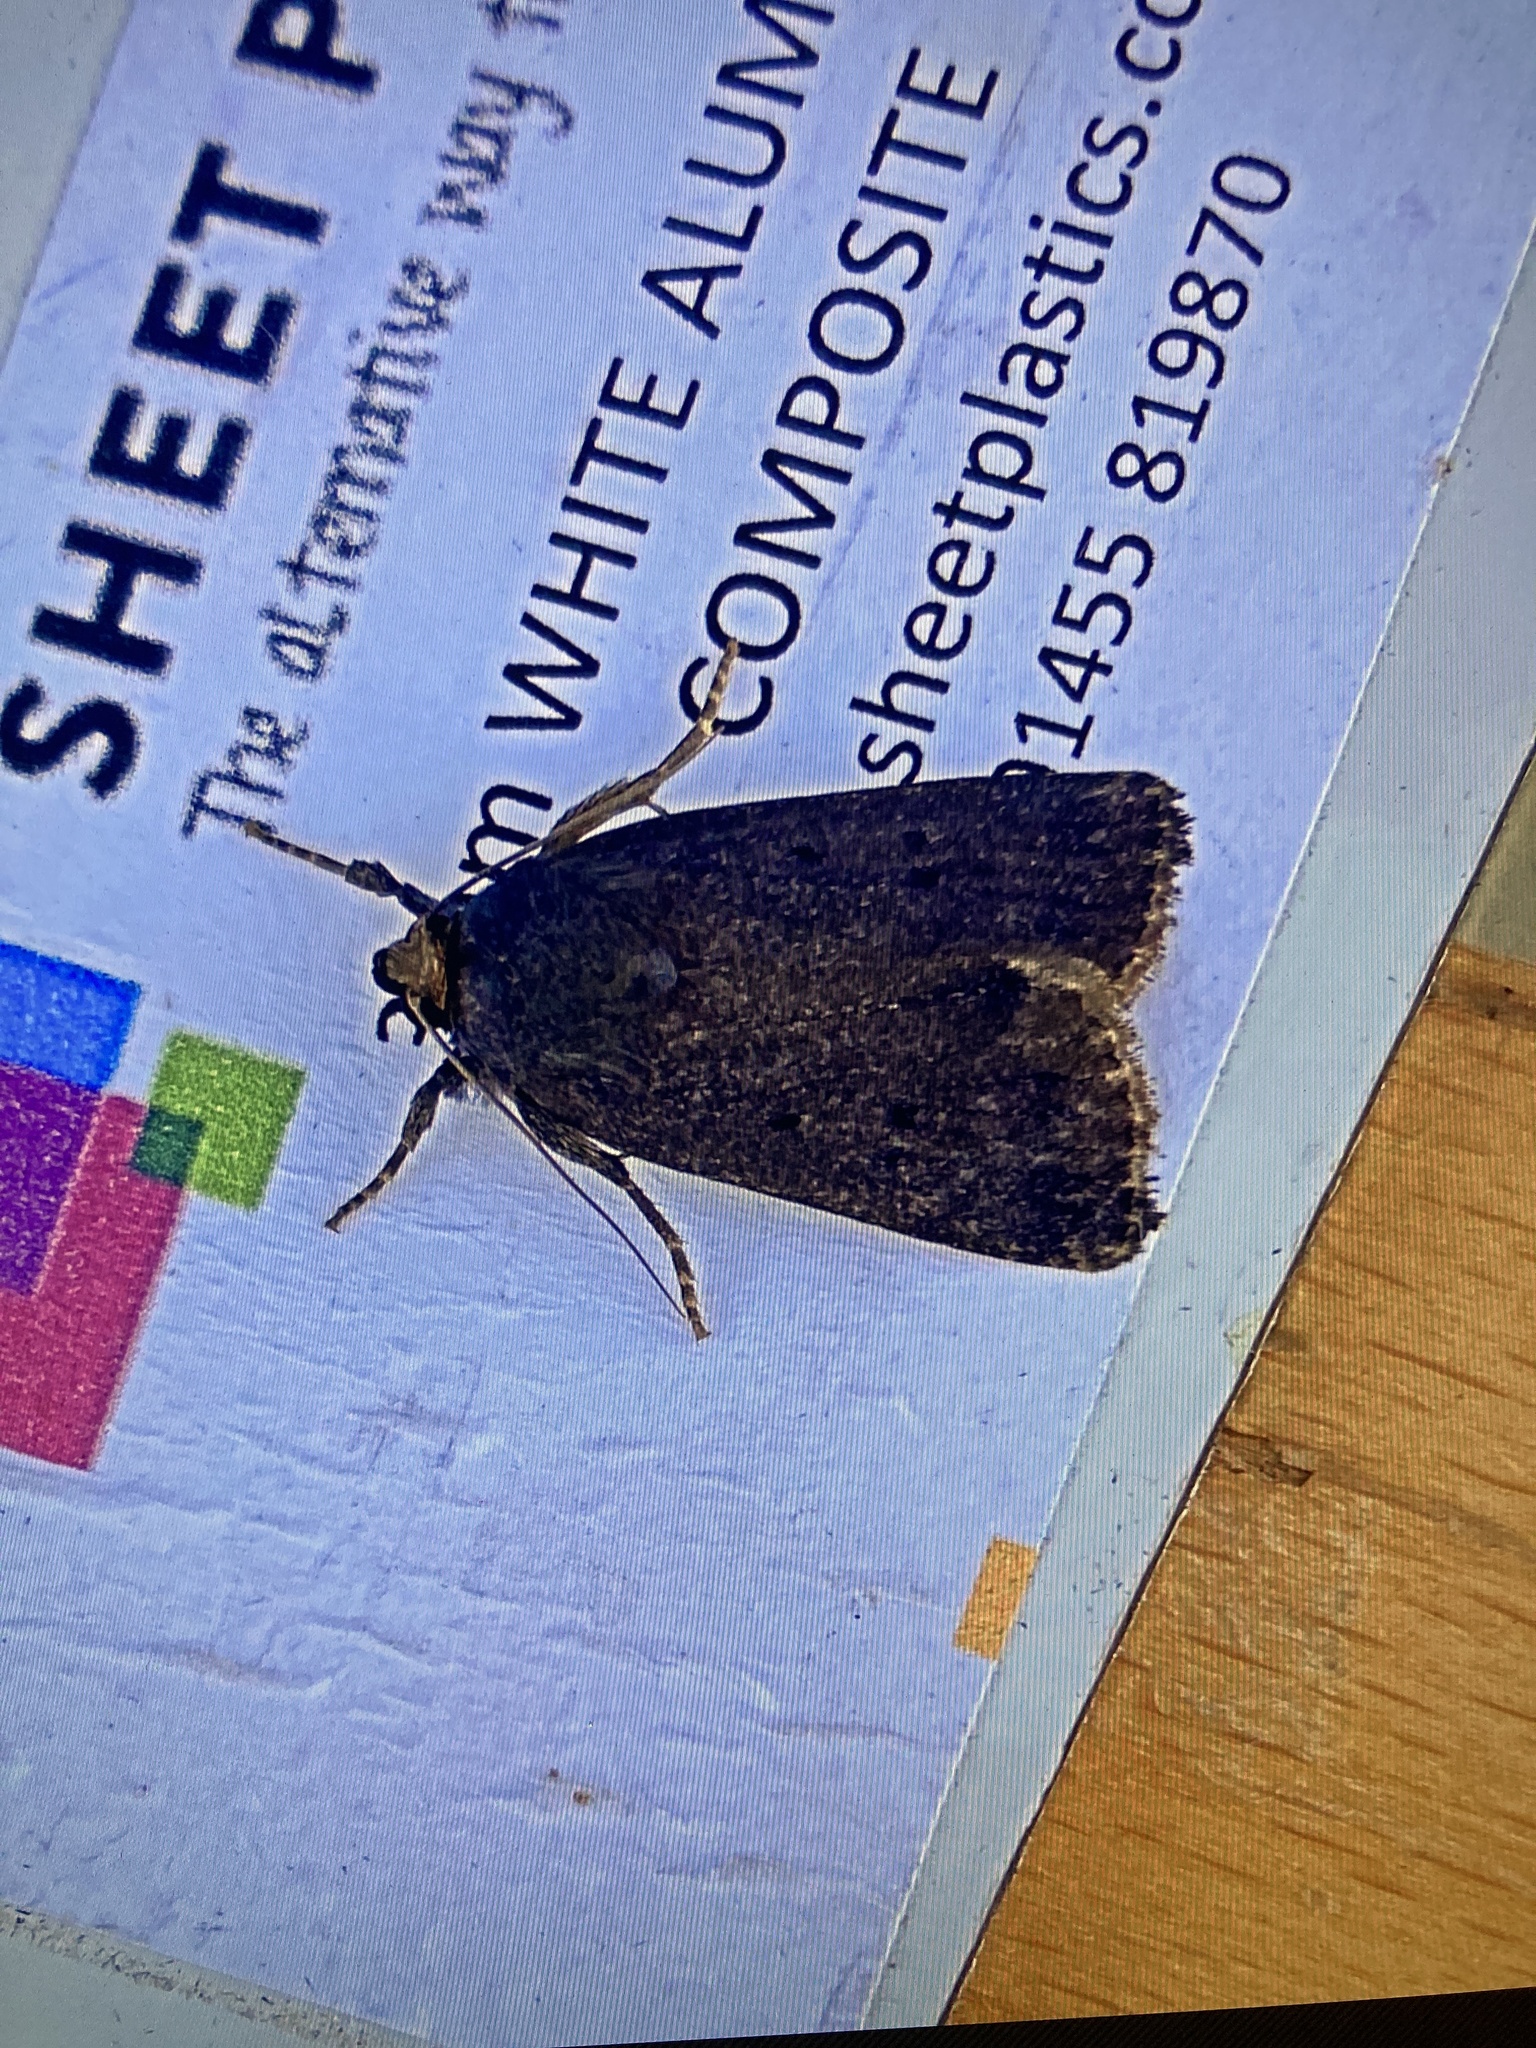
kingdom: Animalia
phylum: Arthropoda
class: Insecta
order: Lepidoptera
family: Noctuidae
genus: Amphipyra
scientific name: Amphipyra tragopoginis
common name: Mouse moth
